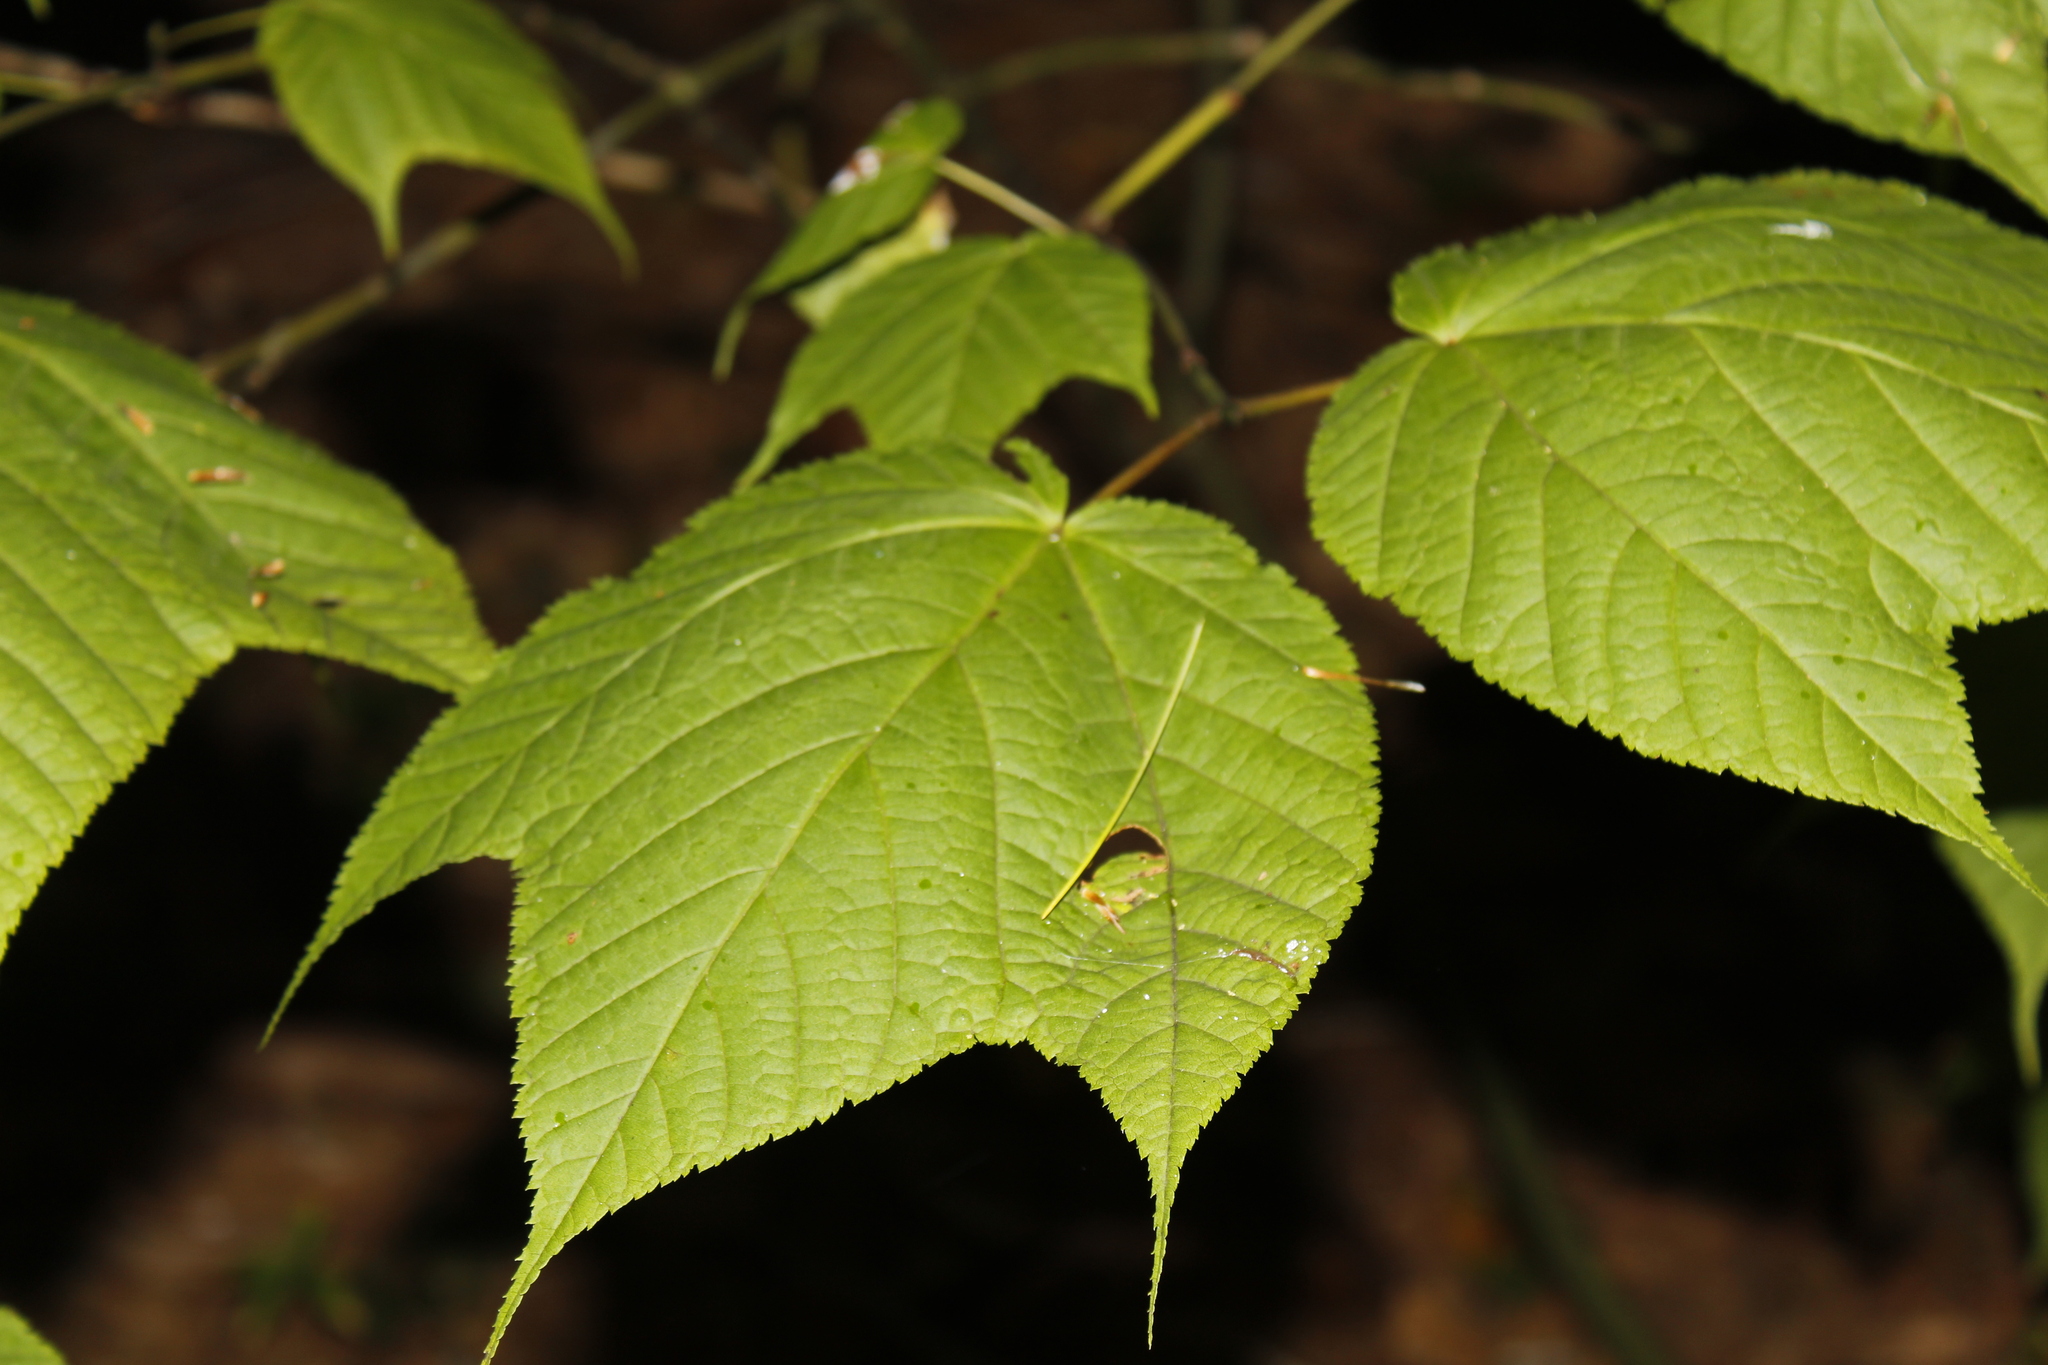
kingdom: Plantae
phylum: Tracheophyta
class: Magnoliopsida
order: Sapindales
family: Sapindaceae
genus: Acer
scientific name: Acer pensylvanicum
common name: Moosewood
